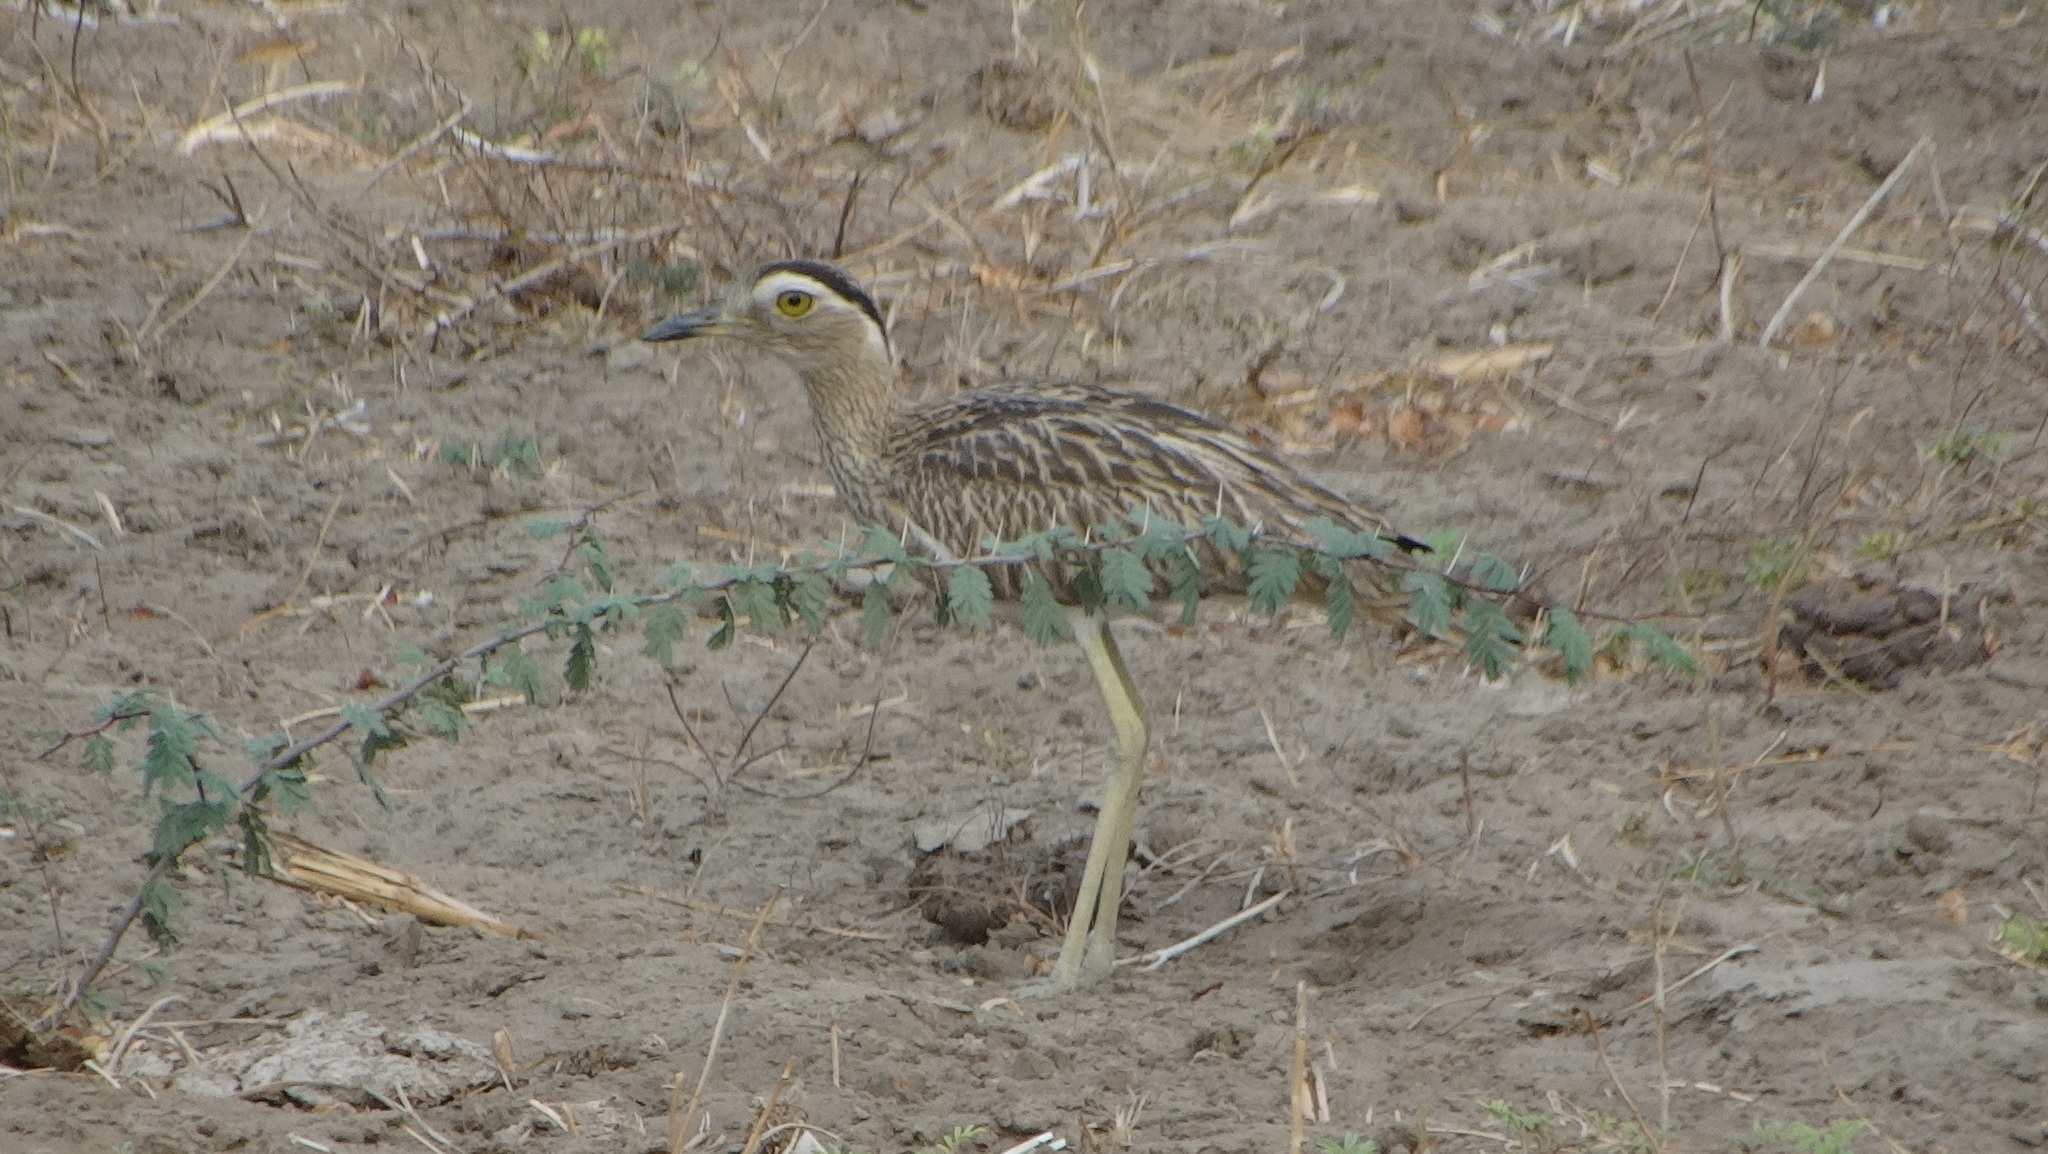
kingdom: Animalia
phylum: Chordata
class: Aves
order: Charadriiformes
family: Burhinidae
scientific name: Burhinidae
